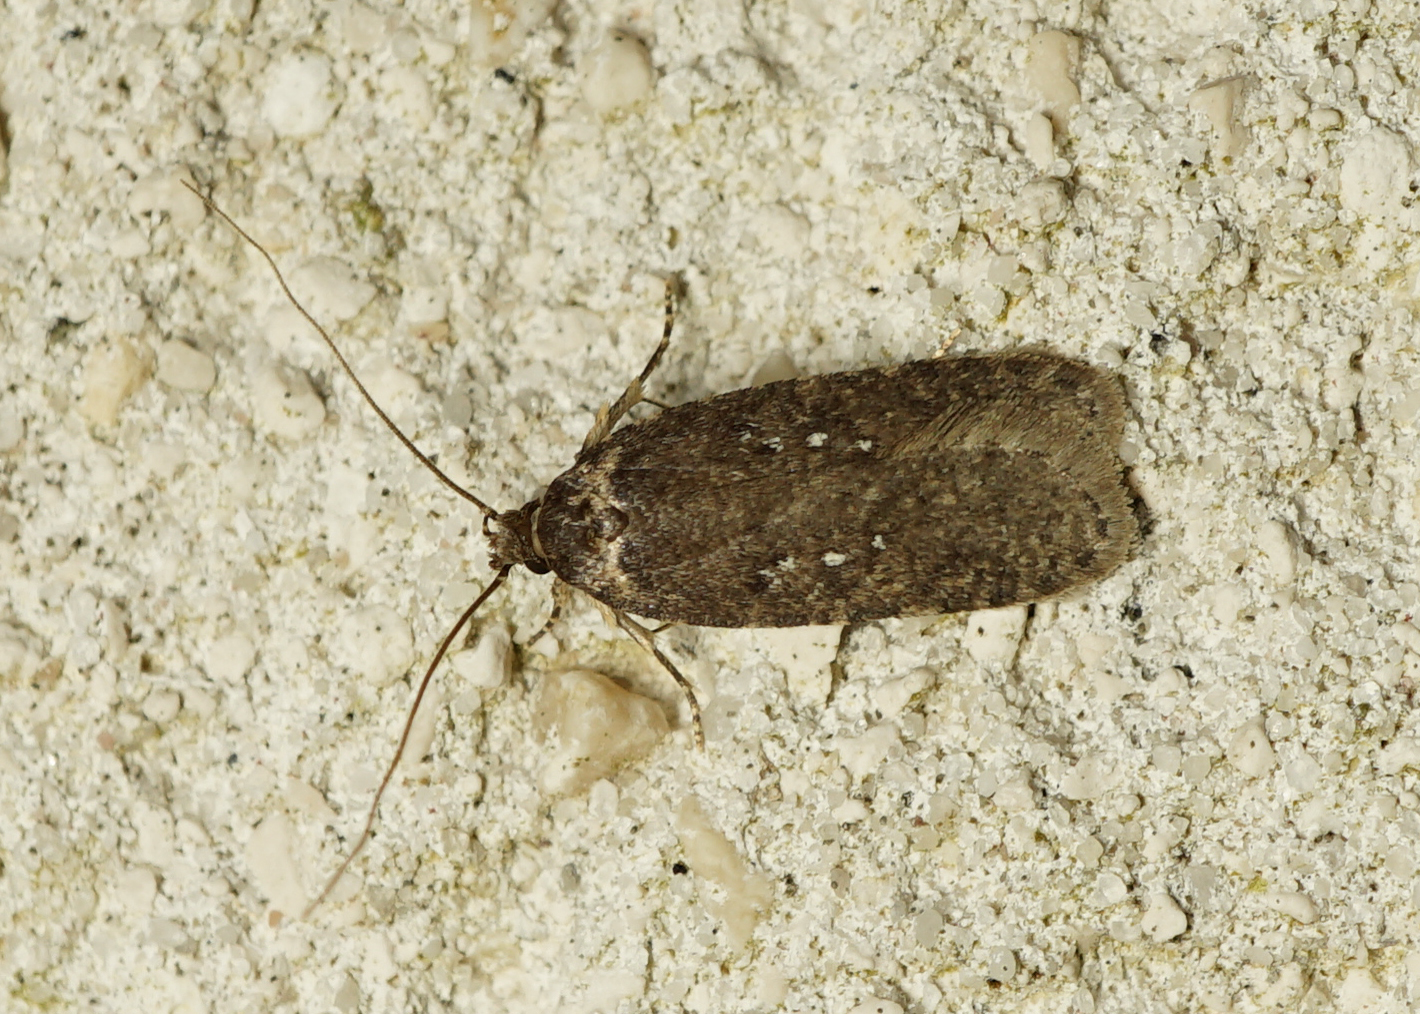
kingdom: Animalia
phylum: Arthropoda
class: Insecta
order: Lepidoptera
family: Depressariidae
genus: Agonopterix
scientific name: Agonopterix heracliana
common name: Common flat-body
